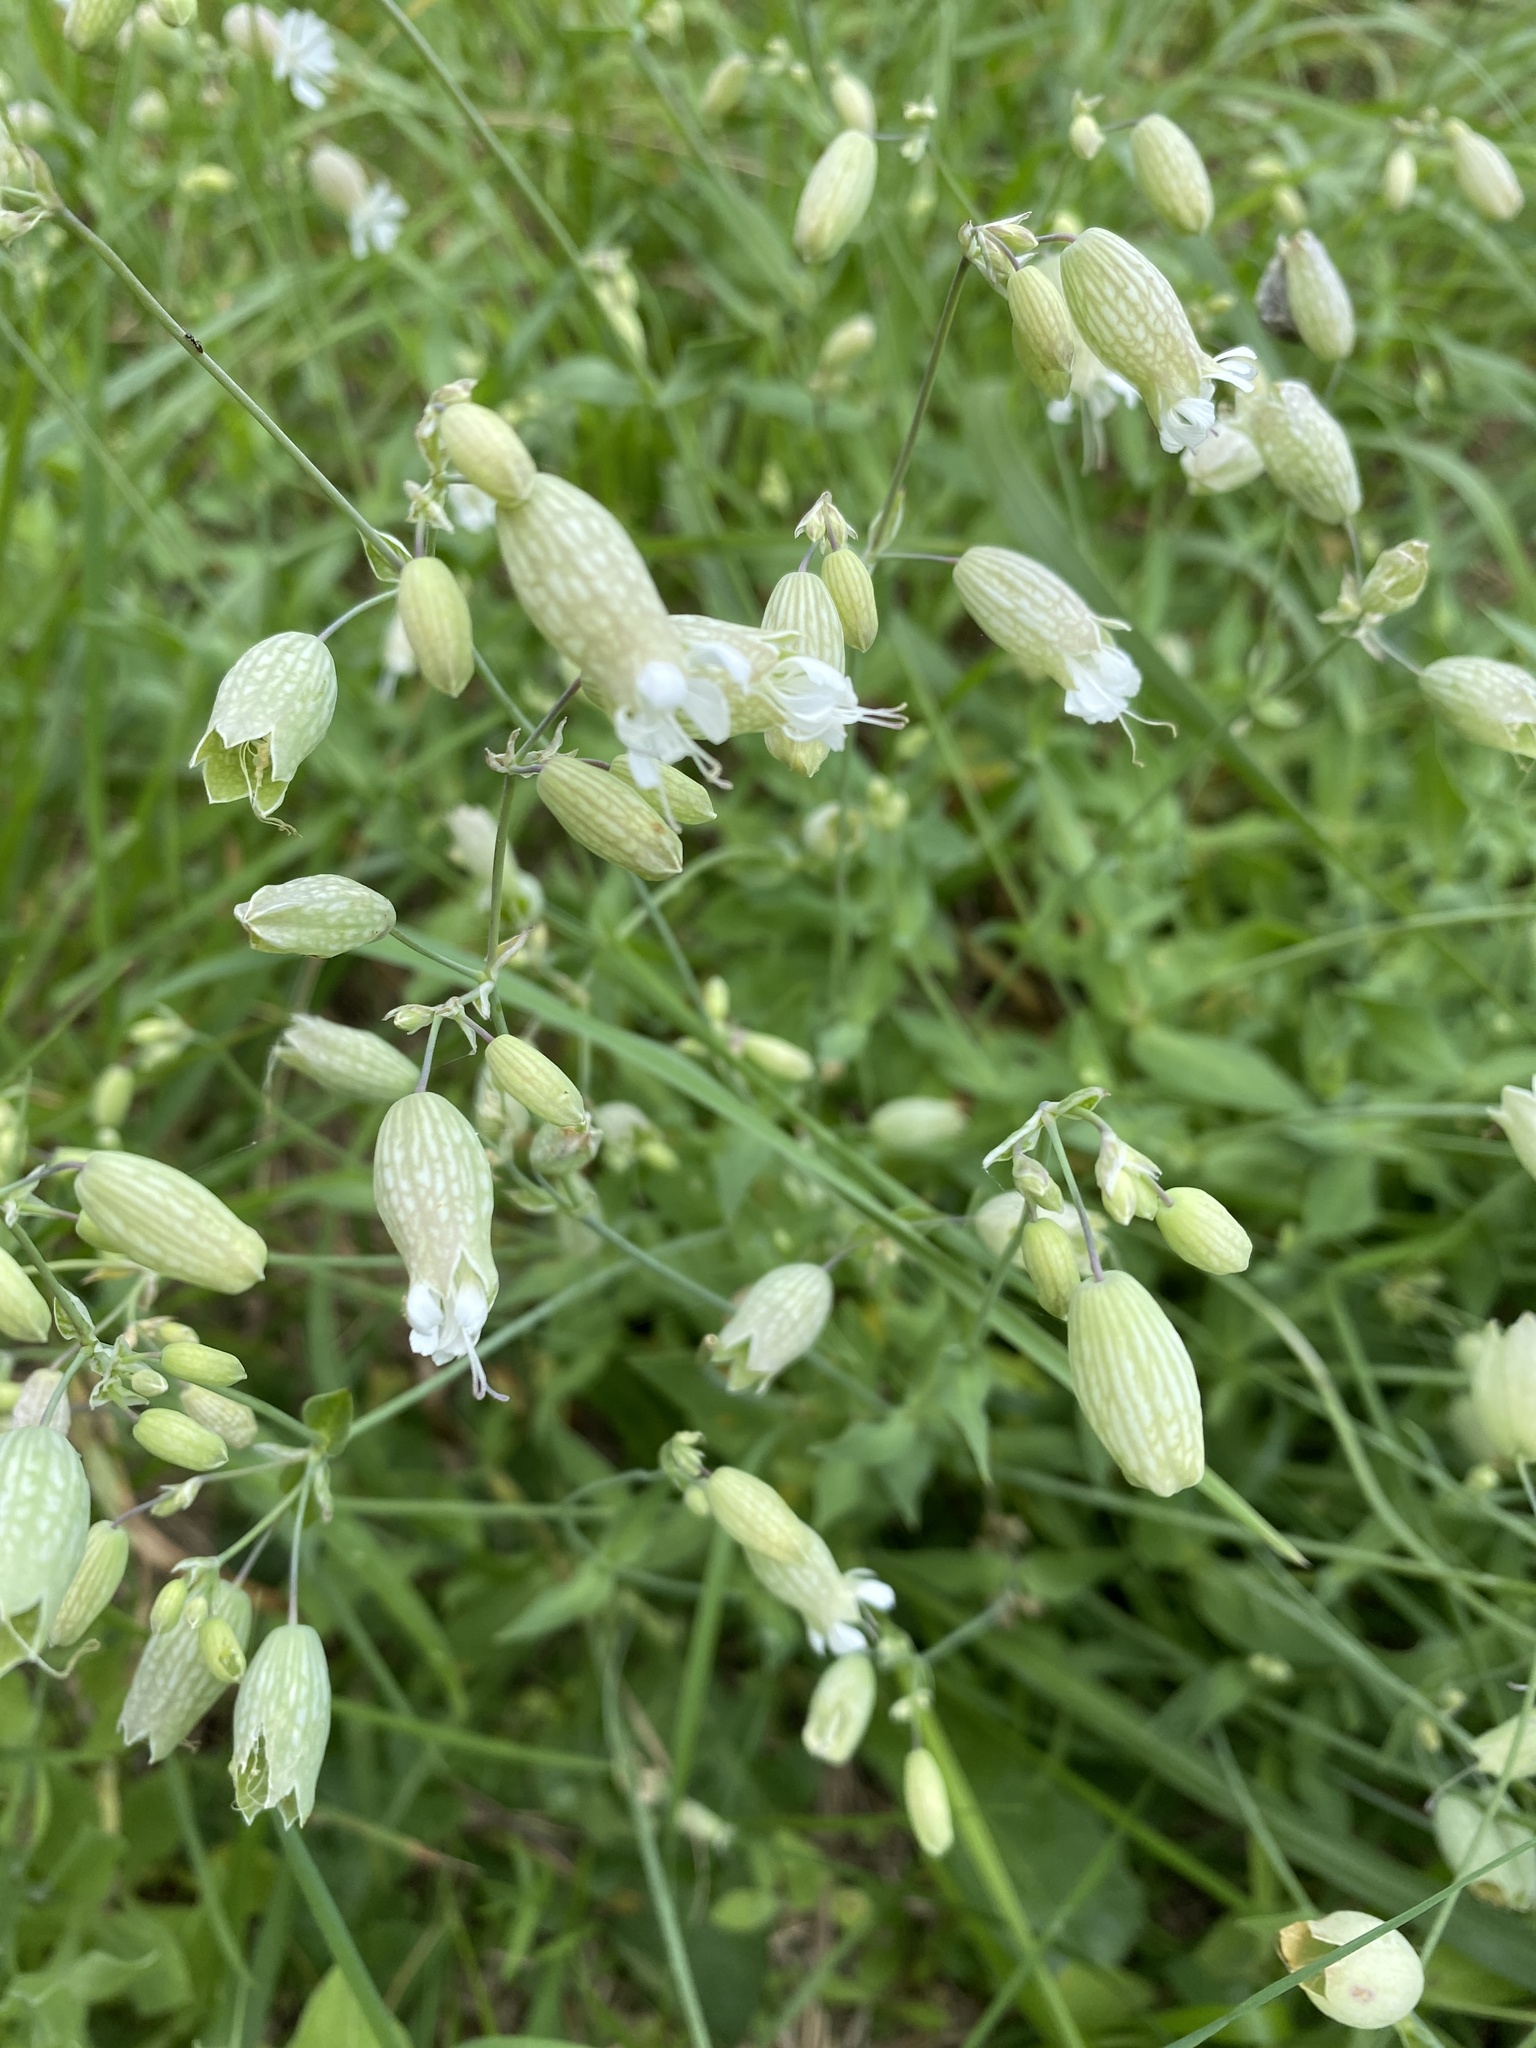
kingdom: Plantae
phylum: Tracheophyta
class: Magnoliopsida
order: Caryophyllales
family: Caryophyllaceae
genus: Silene
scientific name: Silene vulgaris
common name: Bladder campion
